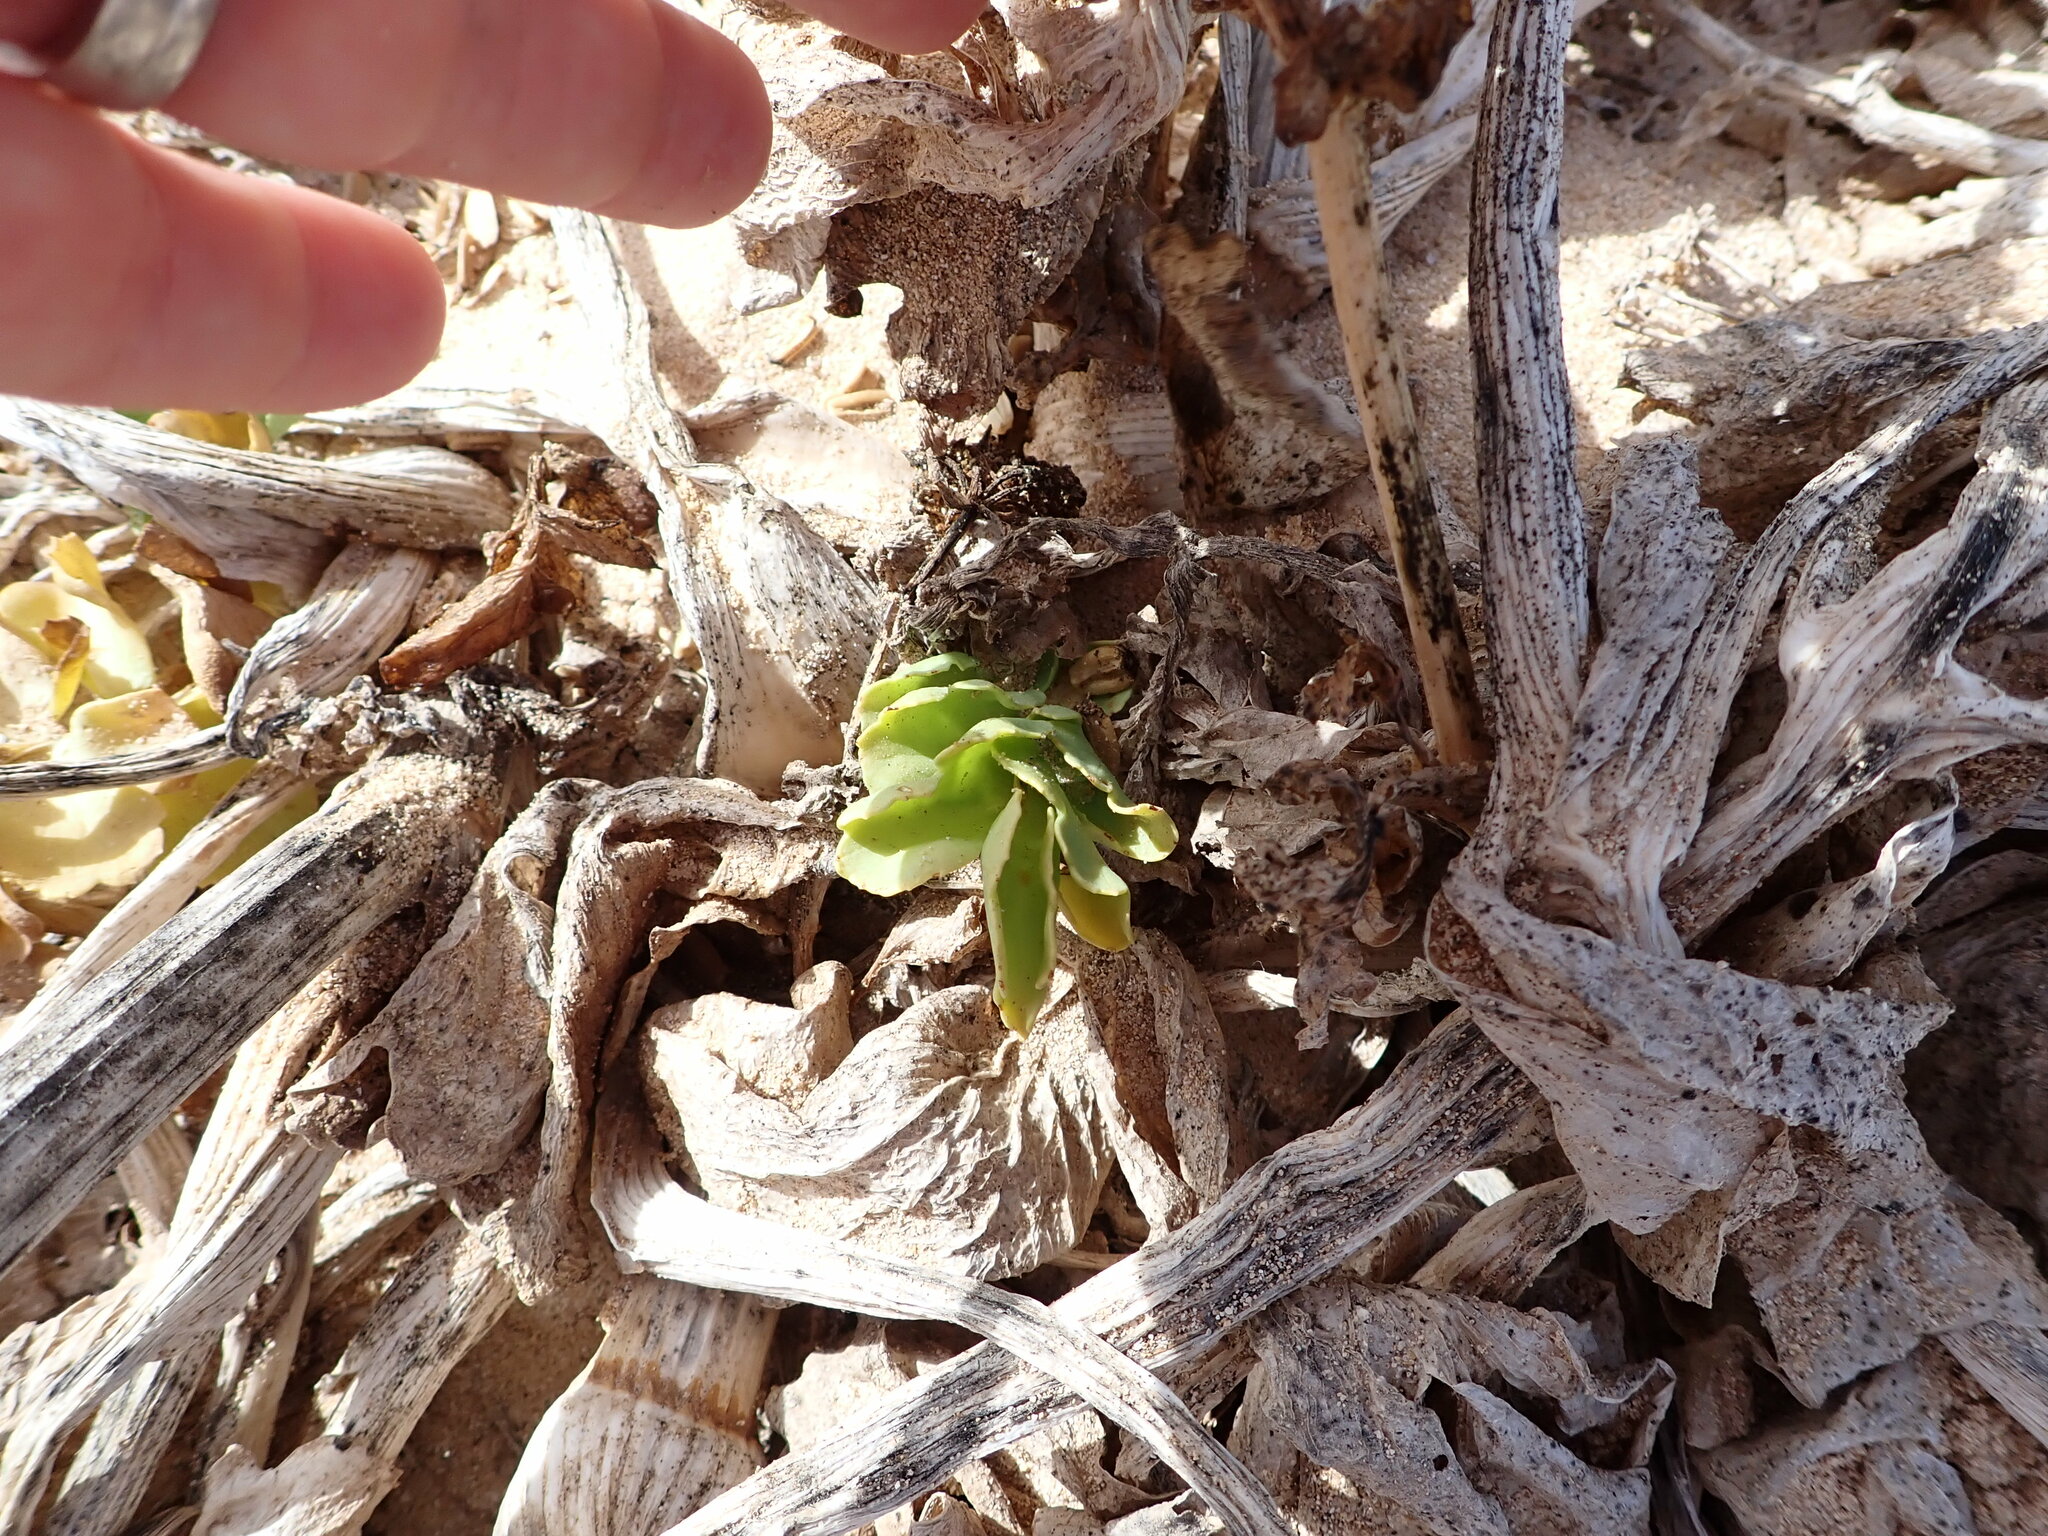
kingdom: Plantae
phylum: Tracheophyta
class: Magnoliopsida
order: Apiales
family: Apiaceae
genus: Astydamia
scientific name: Astydamia latifolia
